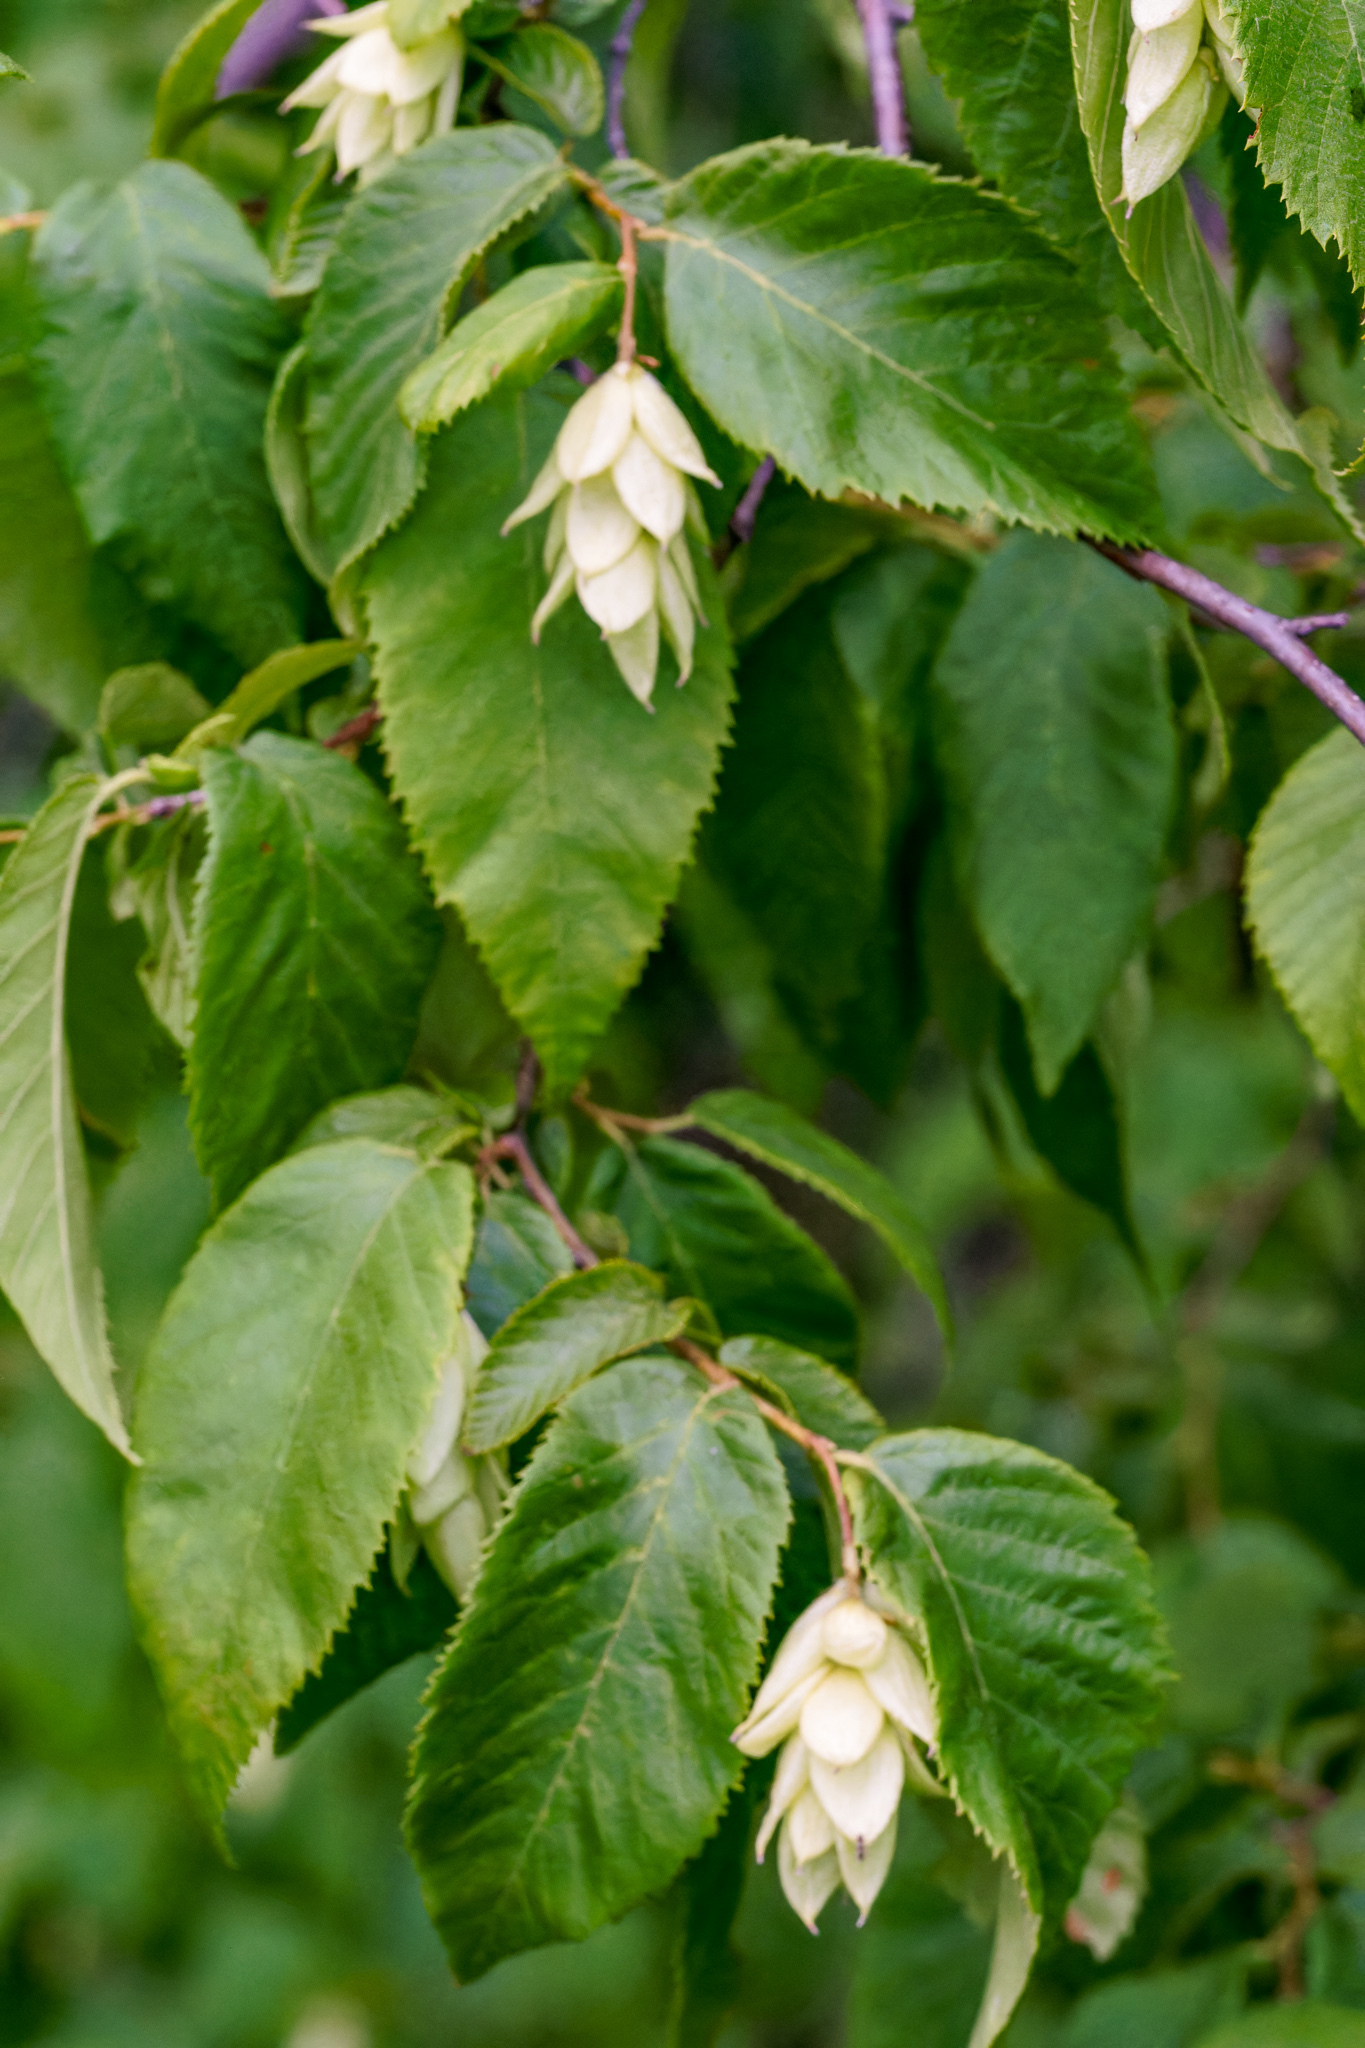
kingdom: Plantae
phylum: Tracheophyta
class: Magnoliopsida
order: Fagales
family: Betulaceae
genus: Ostrya
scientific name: Ostrya virginiana
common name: Ironwood
